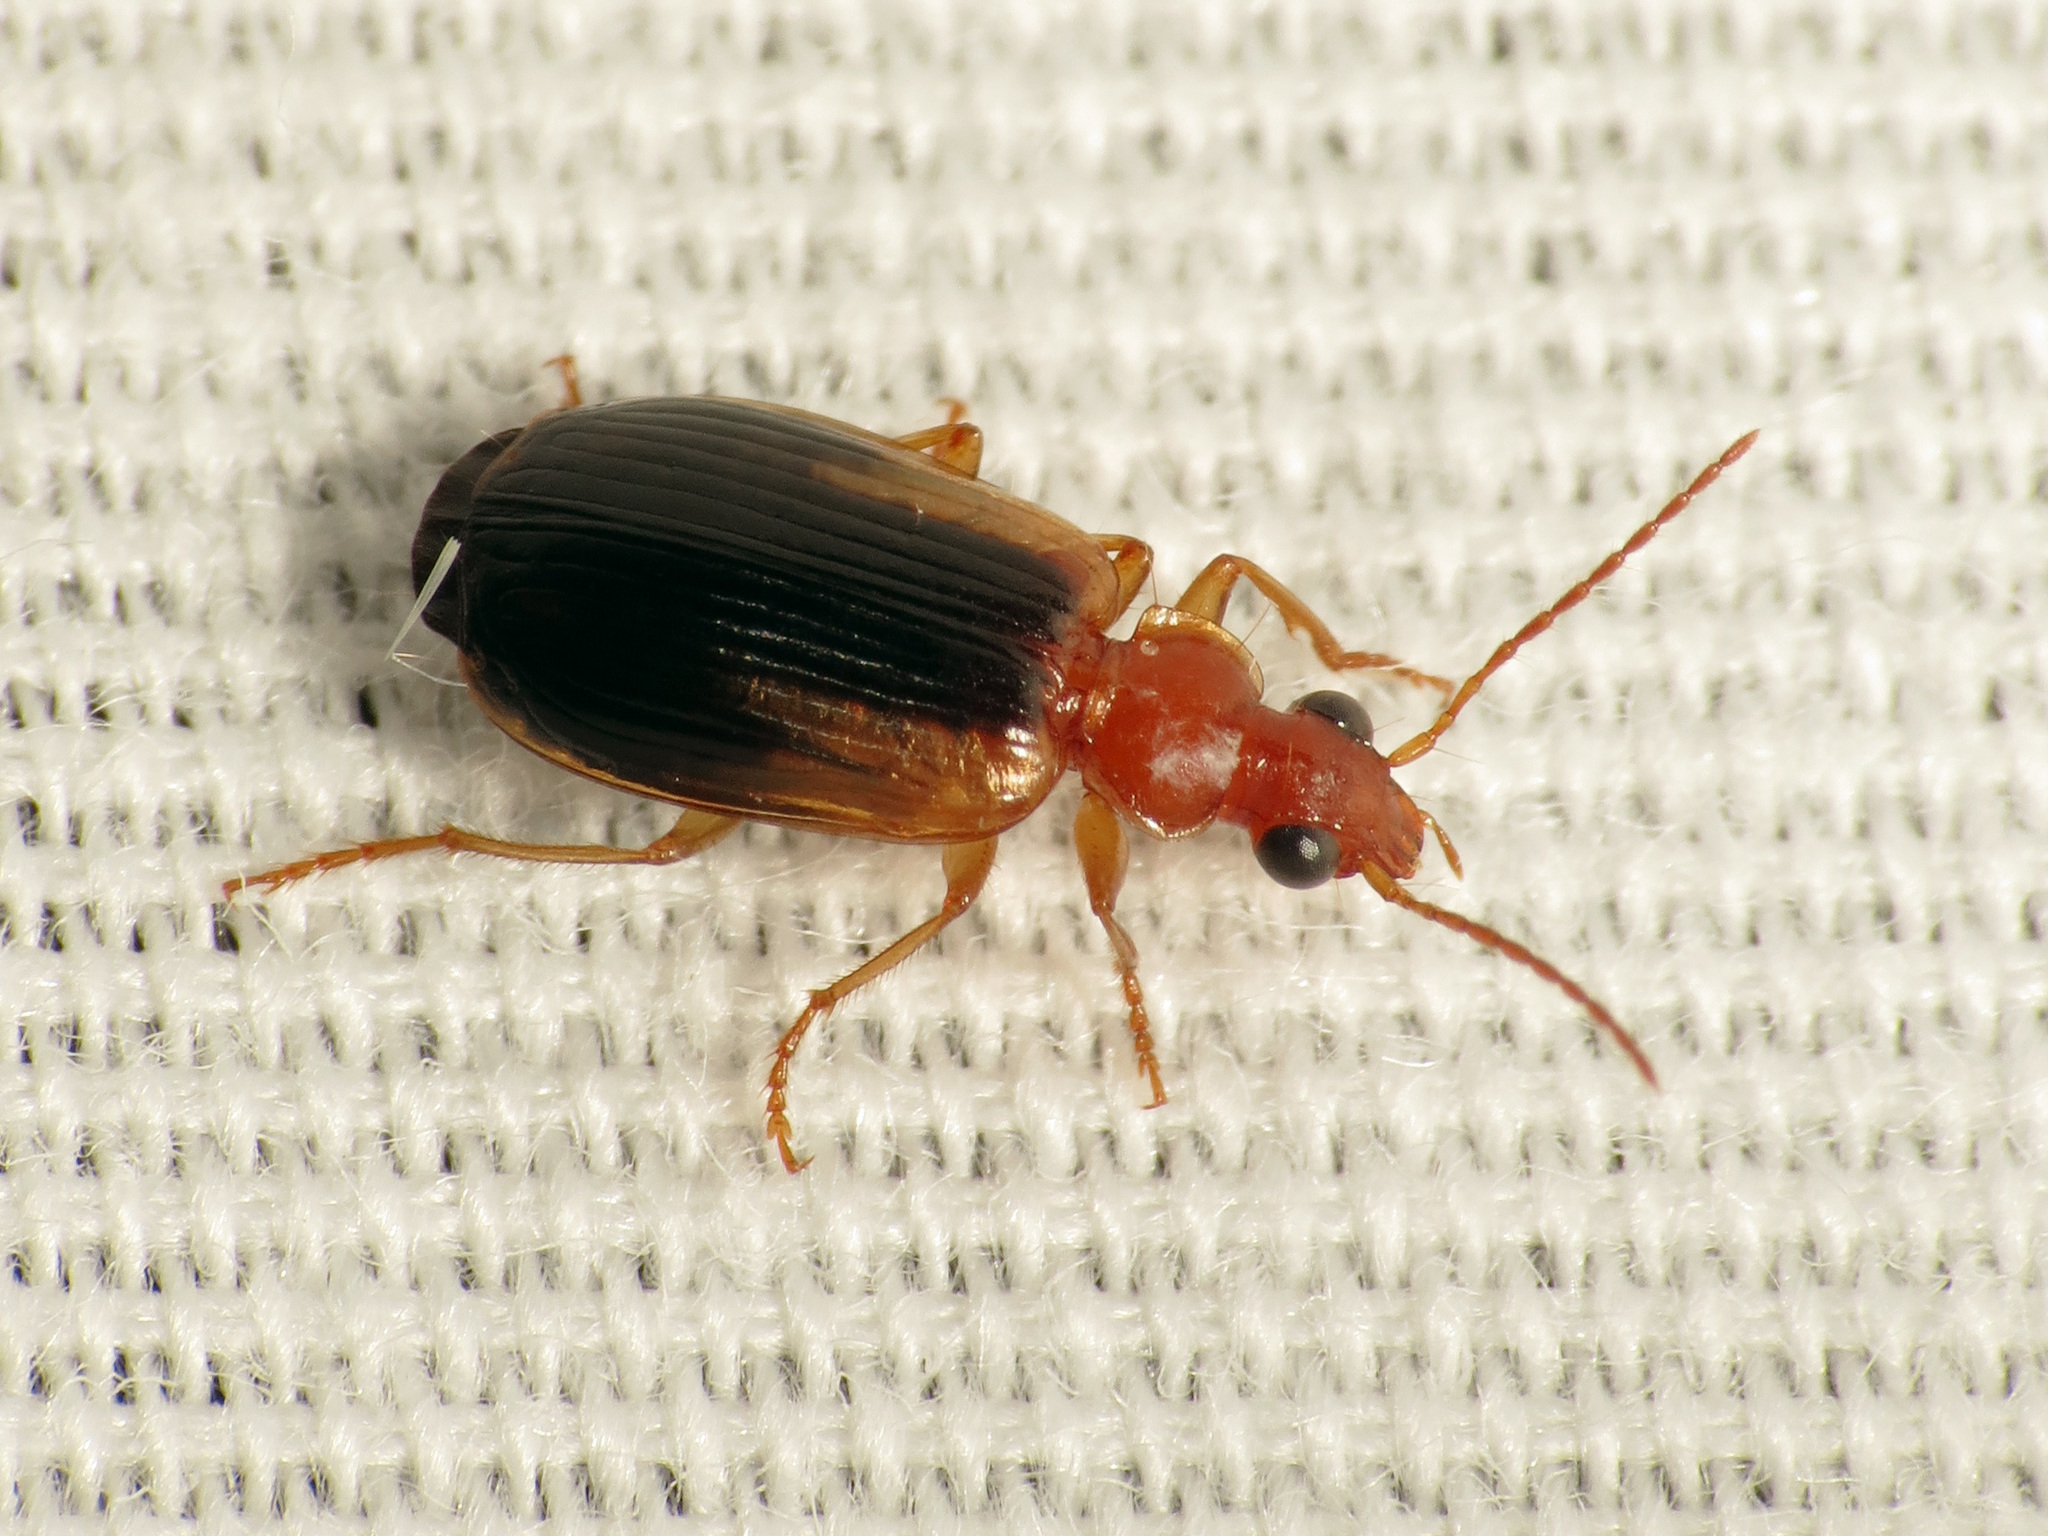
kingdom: Animalia
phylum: Arthropoda
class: Insecta
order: Coleoptera
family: Carabidae
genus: Lebia
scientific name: Lebia scapula
